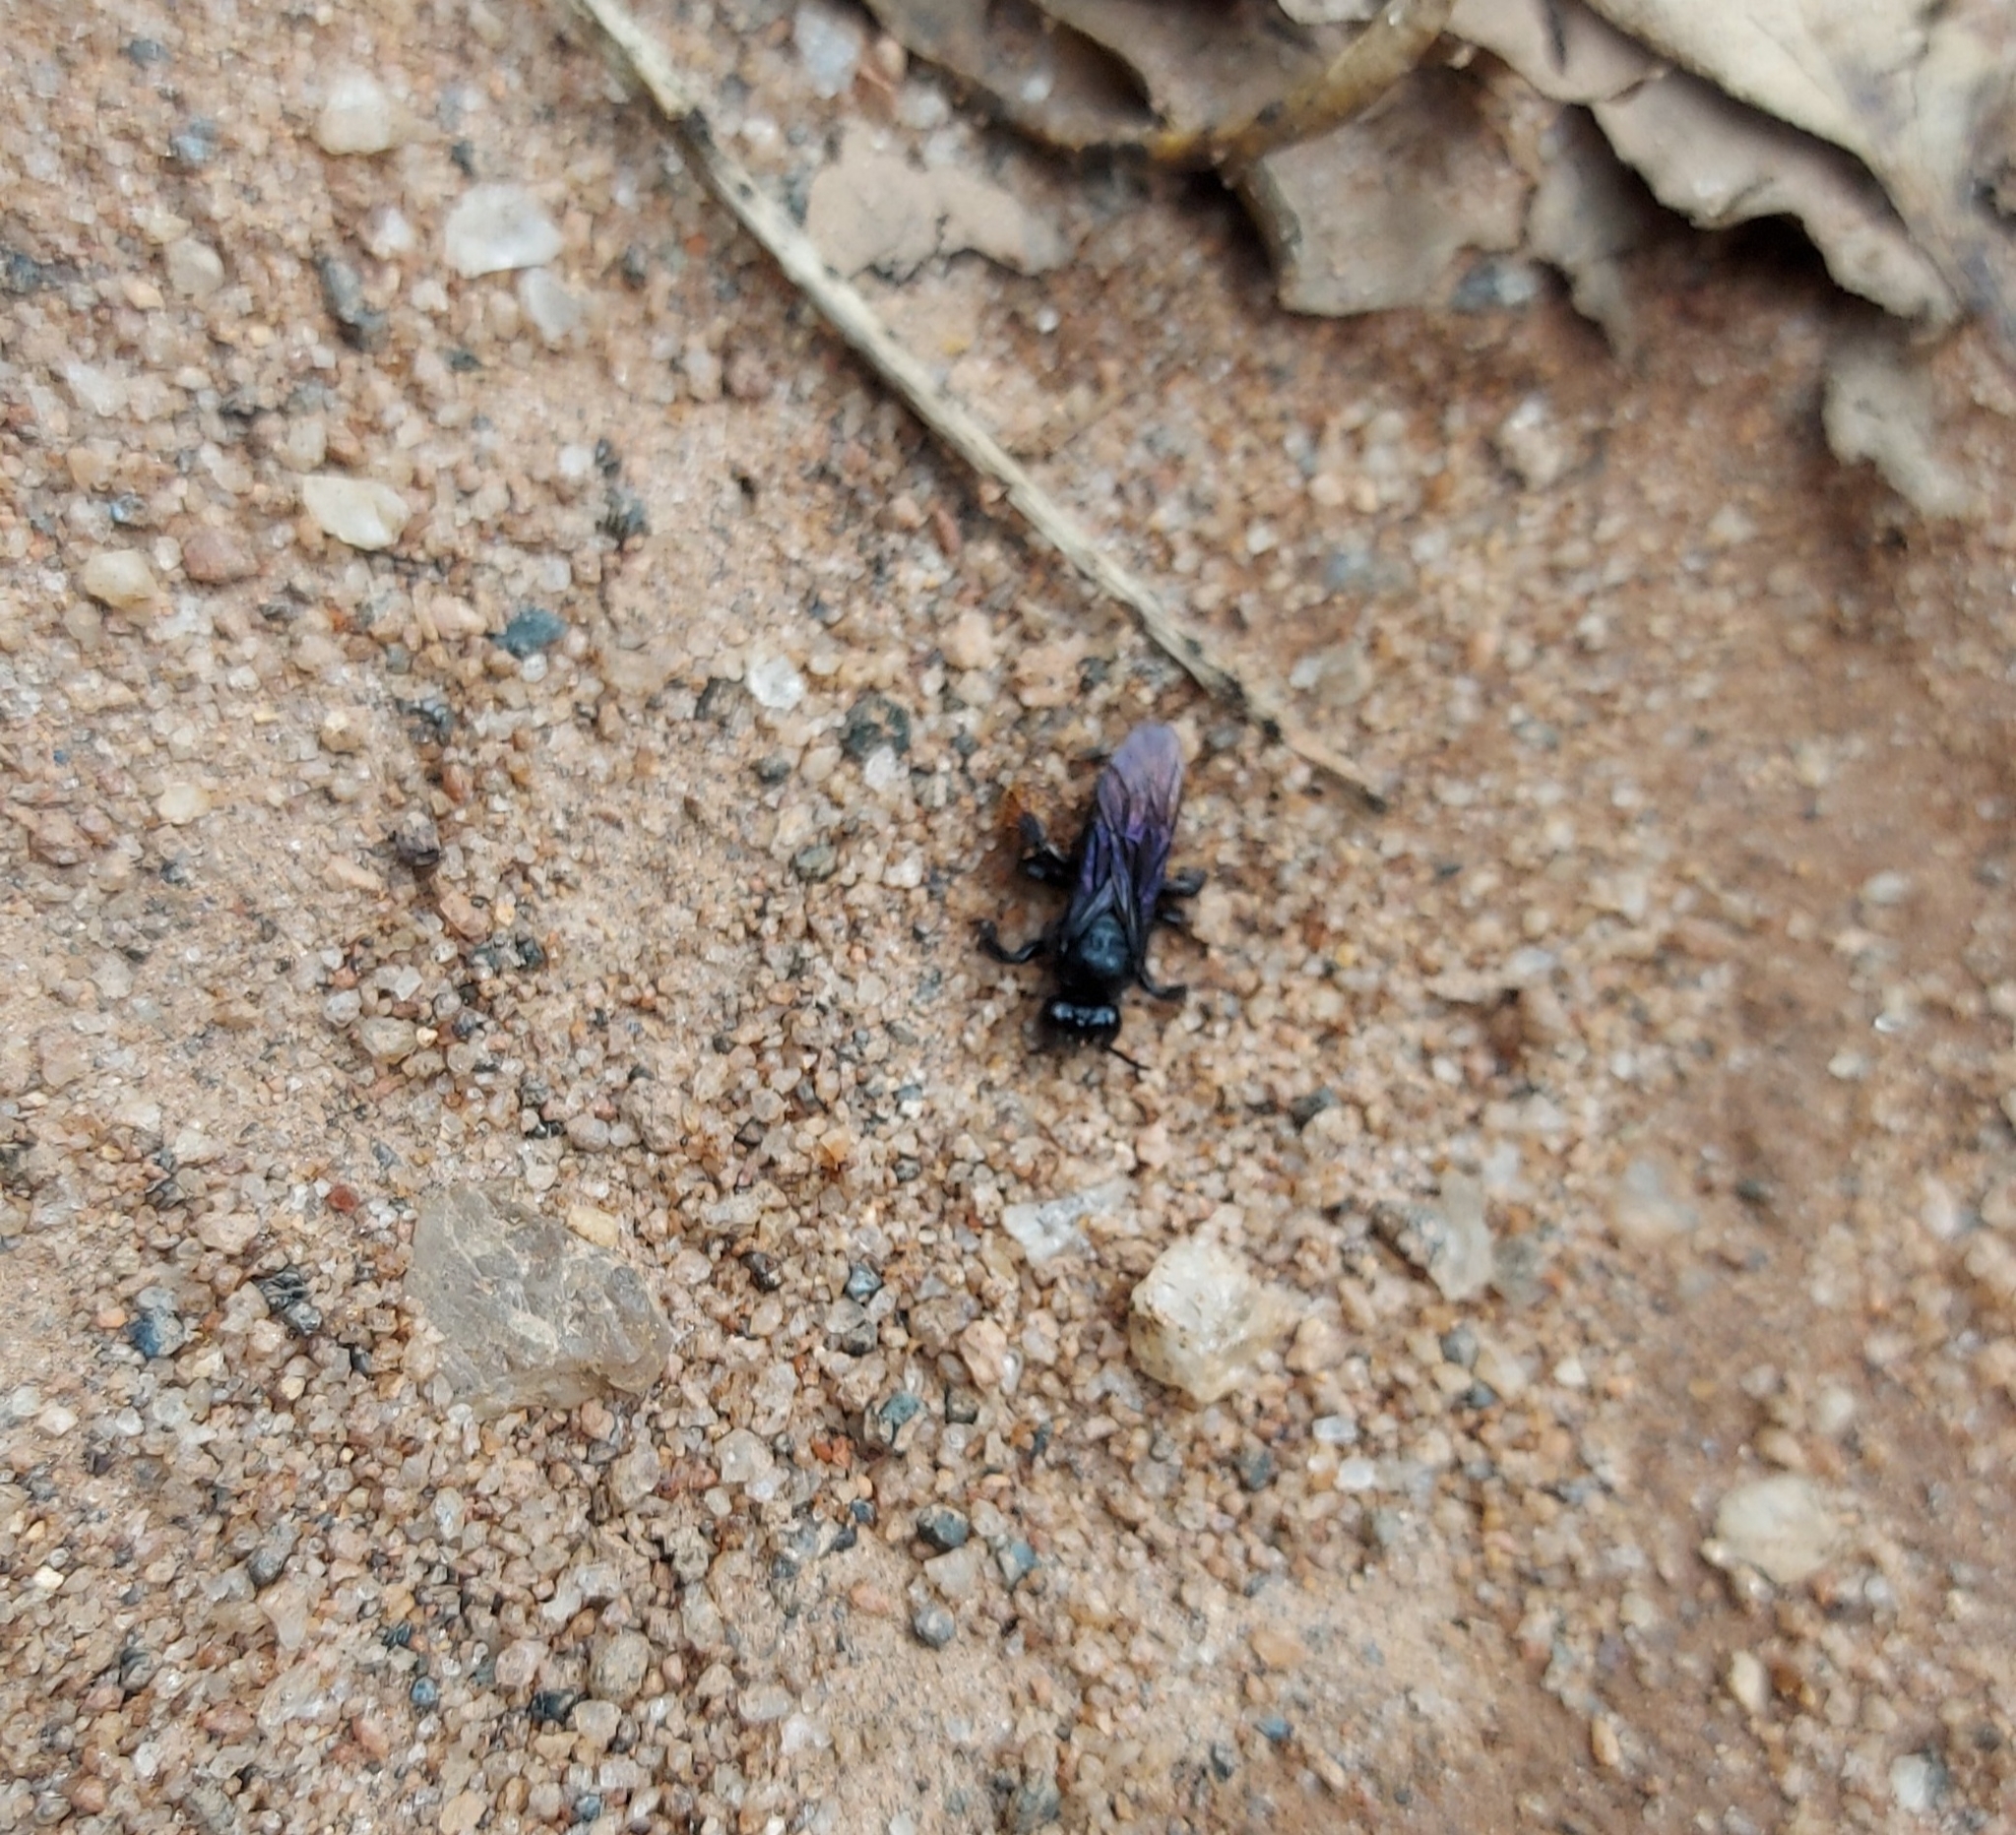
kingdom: Animalia
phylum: Arthropoda
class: Insecta
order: Hymenoptera
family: Apidae
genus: Trigona
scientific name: Trigona spinipes
